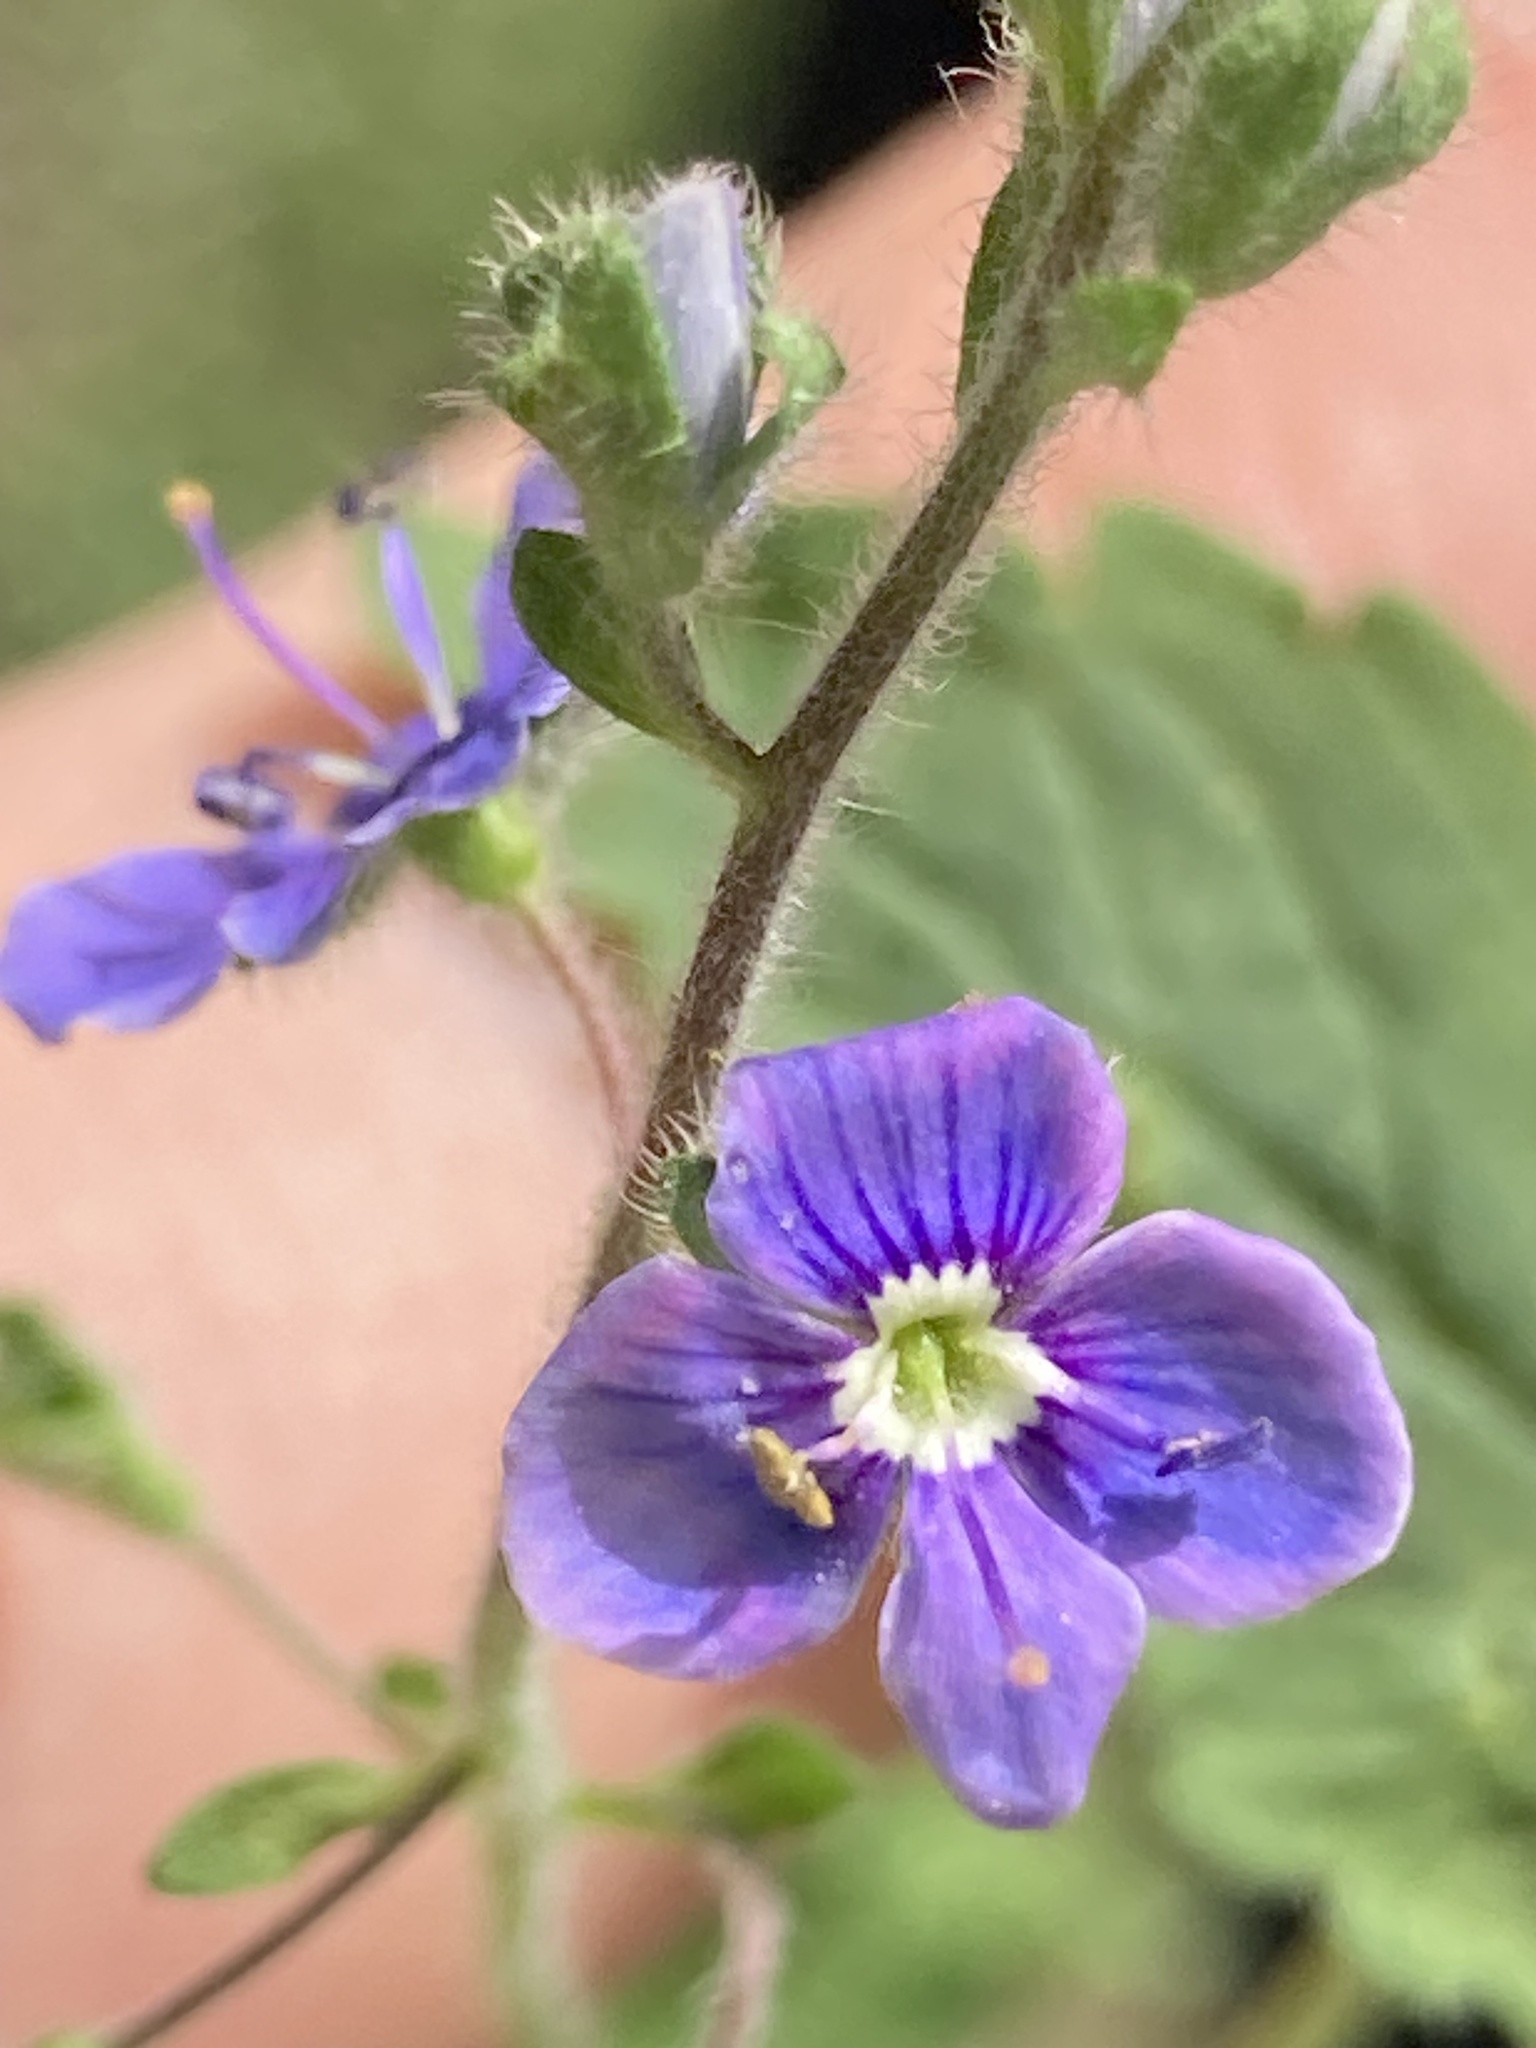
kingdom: Plantae
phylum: Tracheophyta
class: Magnoliopsida
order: Lamiales
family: Plantaginaceae
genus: Veronica
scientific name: Veronica chamaedrys
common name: Germander speedwell
